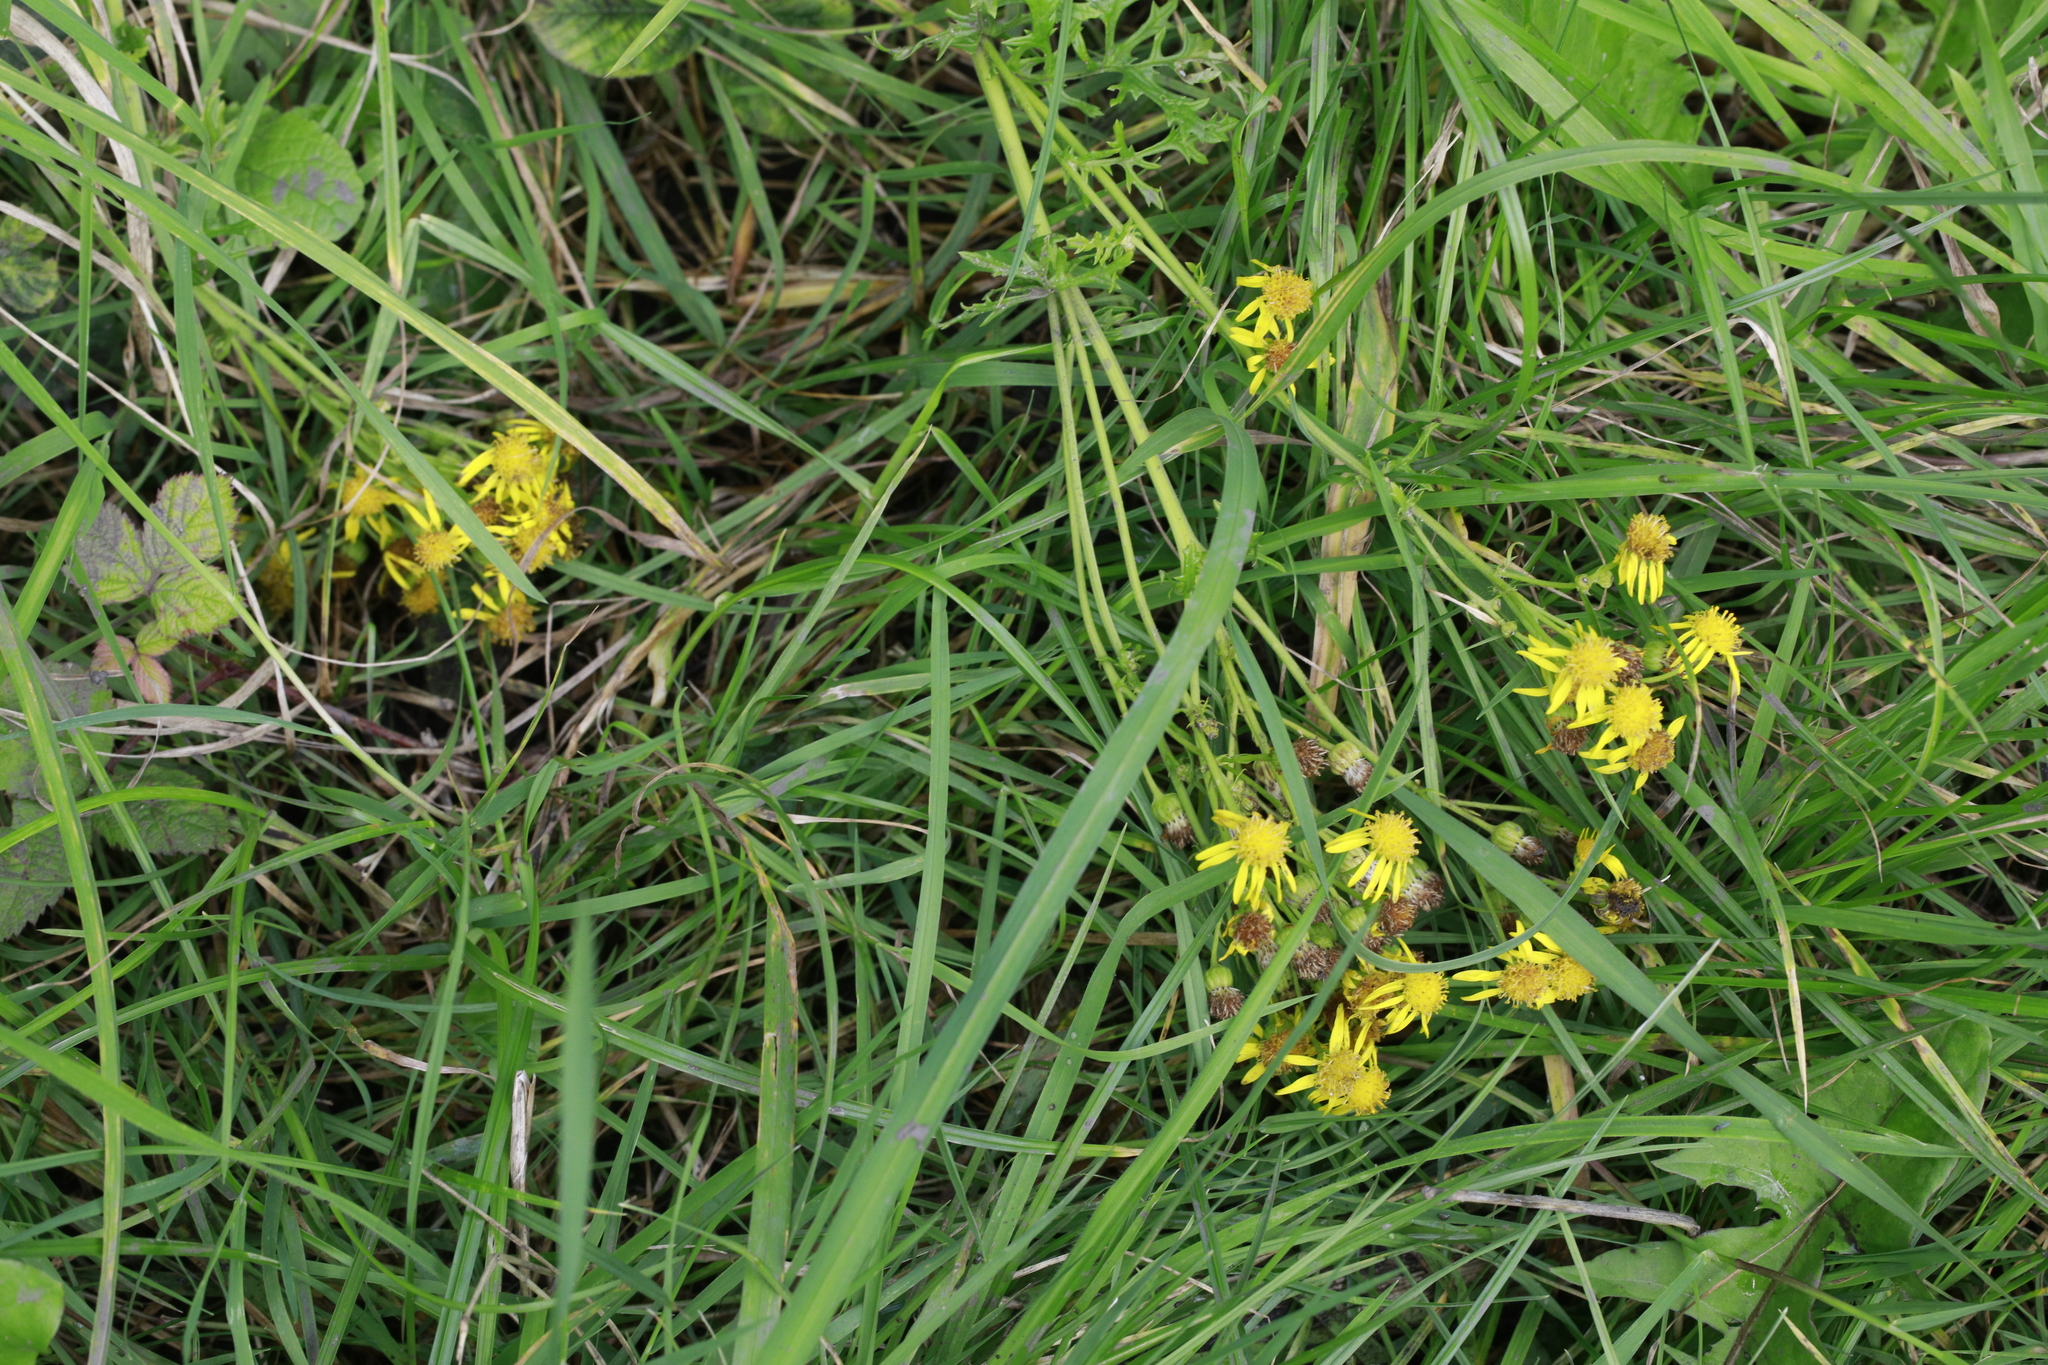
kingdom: Plantae
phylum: Tracheophyta
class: Magnoliopsida
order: Asterales
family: Asteraceae
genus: Jacobaea
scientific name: Jacobaea vulgaris
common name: Stinking willie
